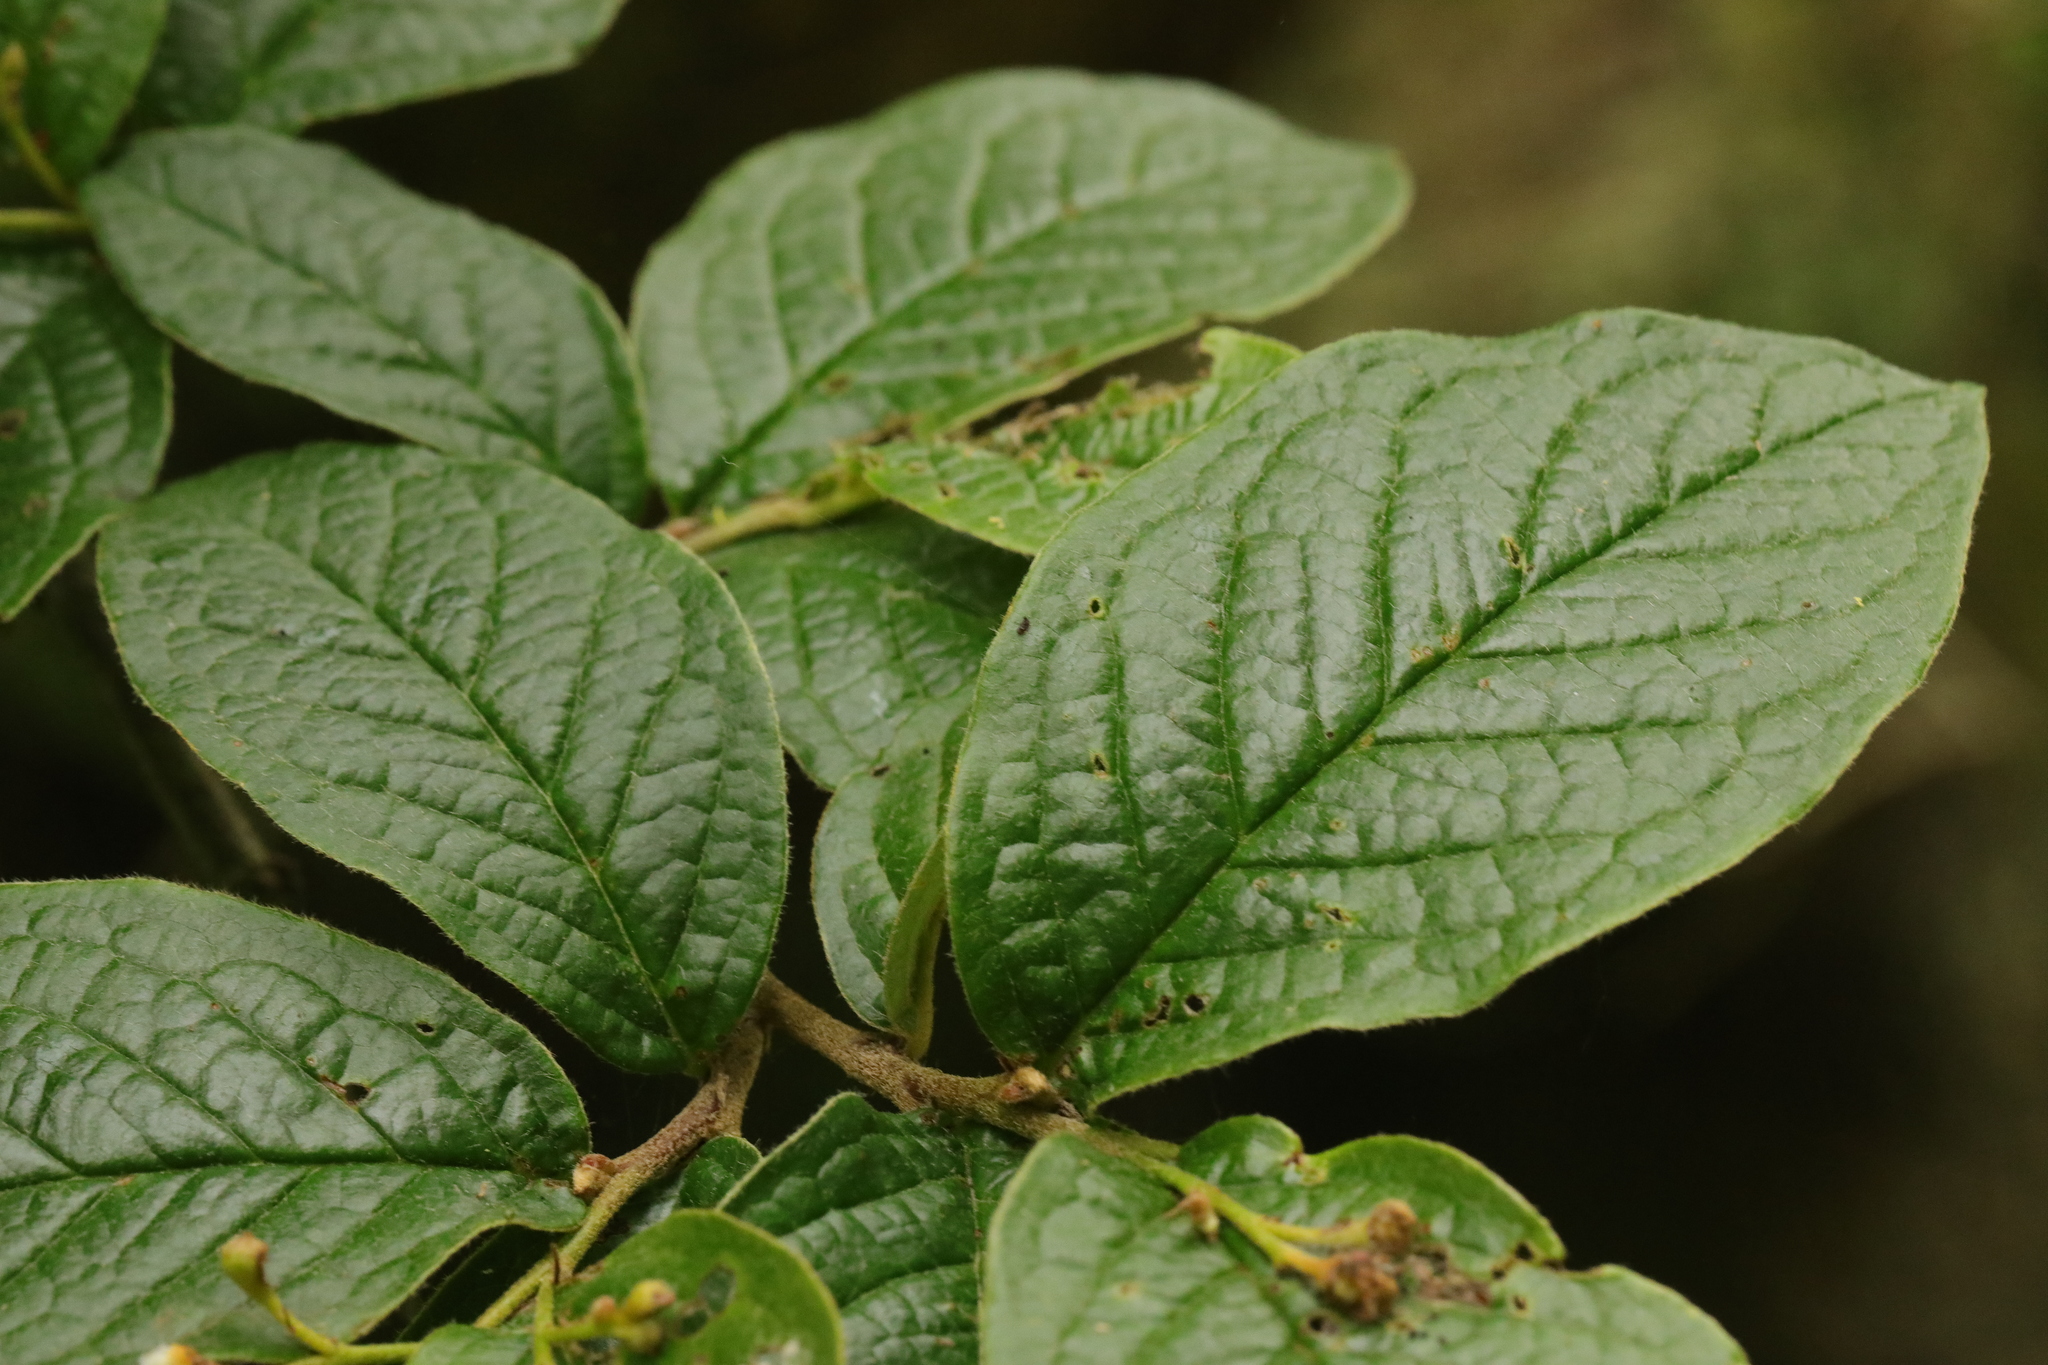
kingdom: Plantae
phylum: Tracheophyta
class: Magnoliopsida
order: Rosales
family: Rosaceae
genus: Cotoneaster
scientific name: Cotoneaster bullatus
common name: Hollyberry cotoneaster
